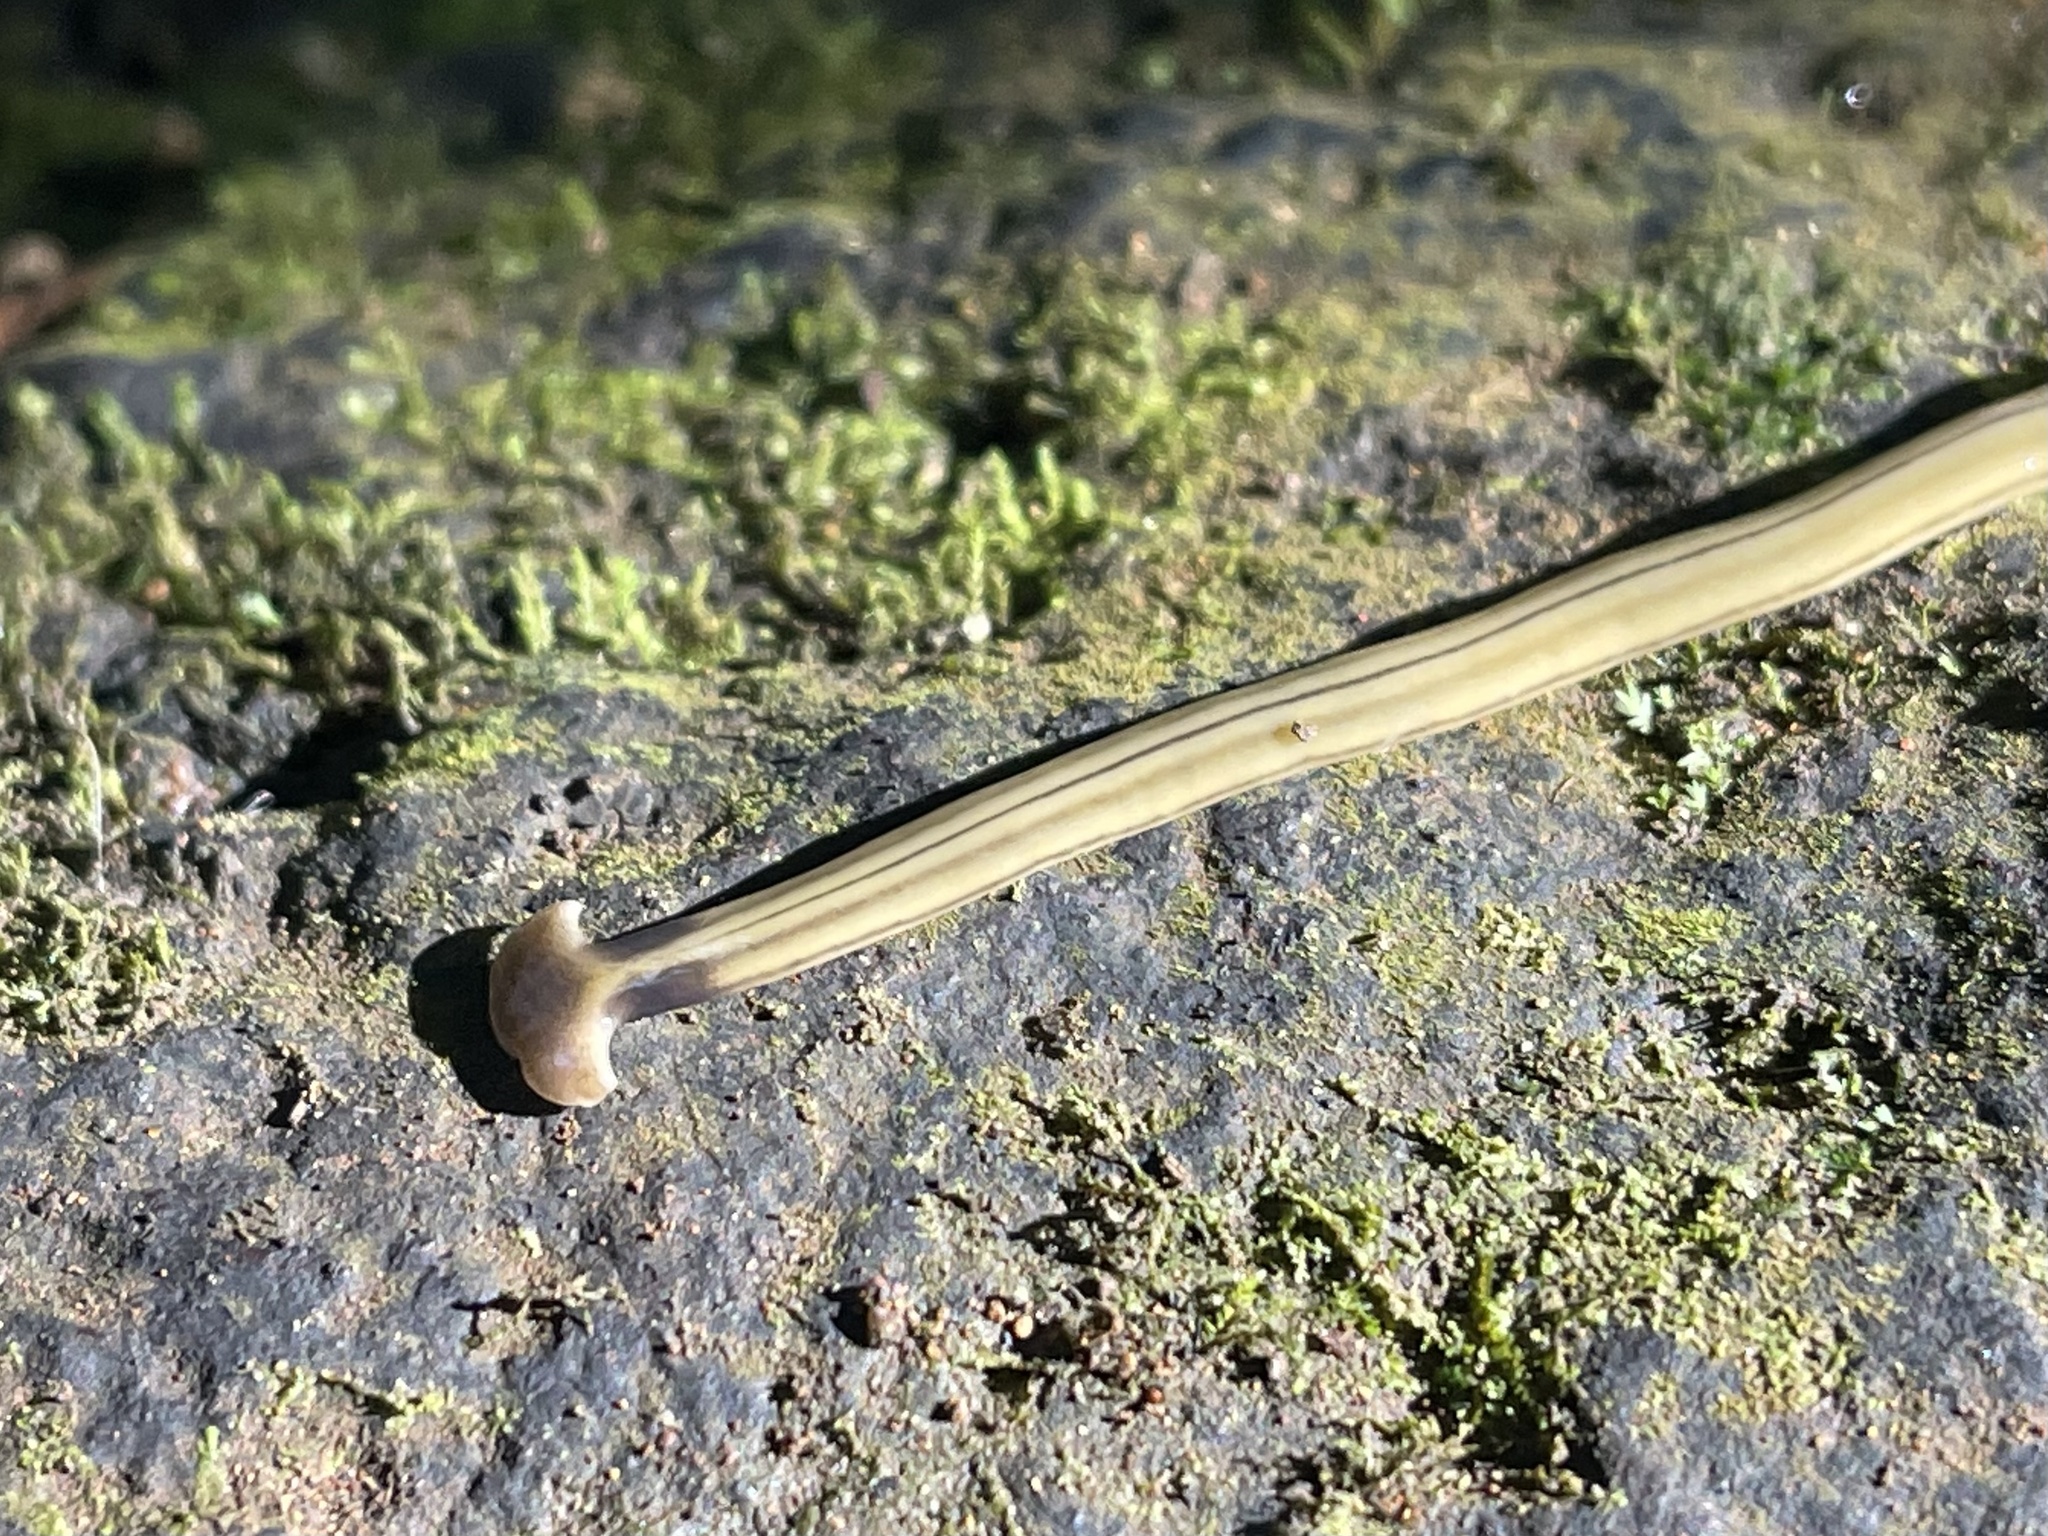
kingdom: Animalia
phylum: Platyhelminthes
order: Tricladida
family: Geoplanidae
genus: Bipalium
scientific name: Bipalium kewense
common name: Hammerhead flatworm
